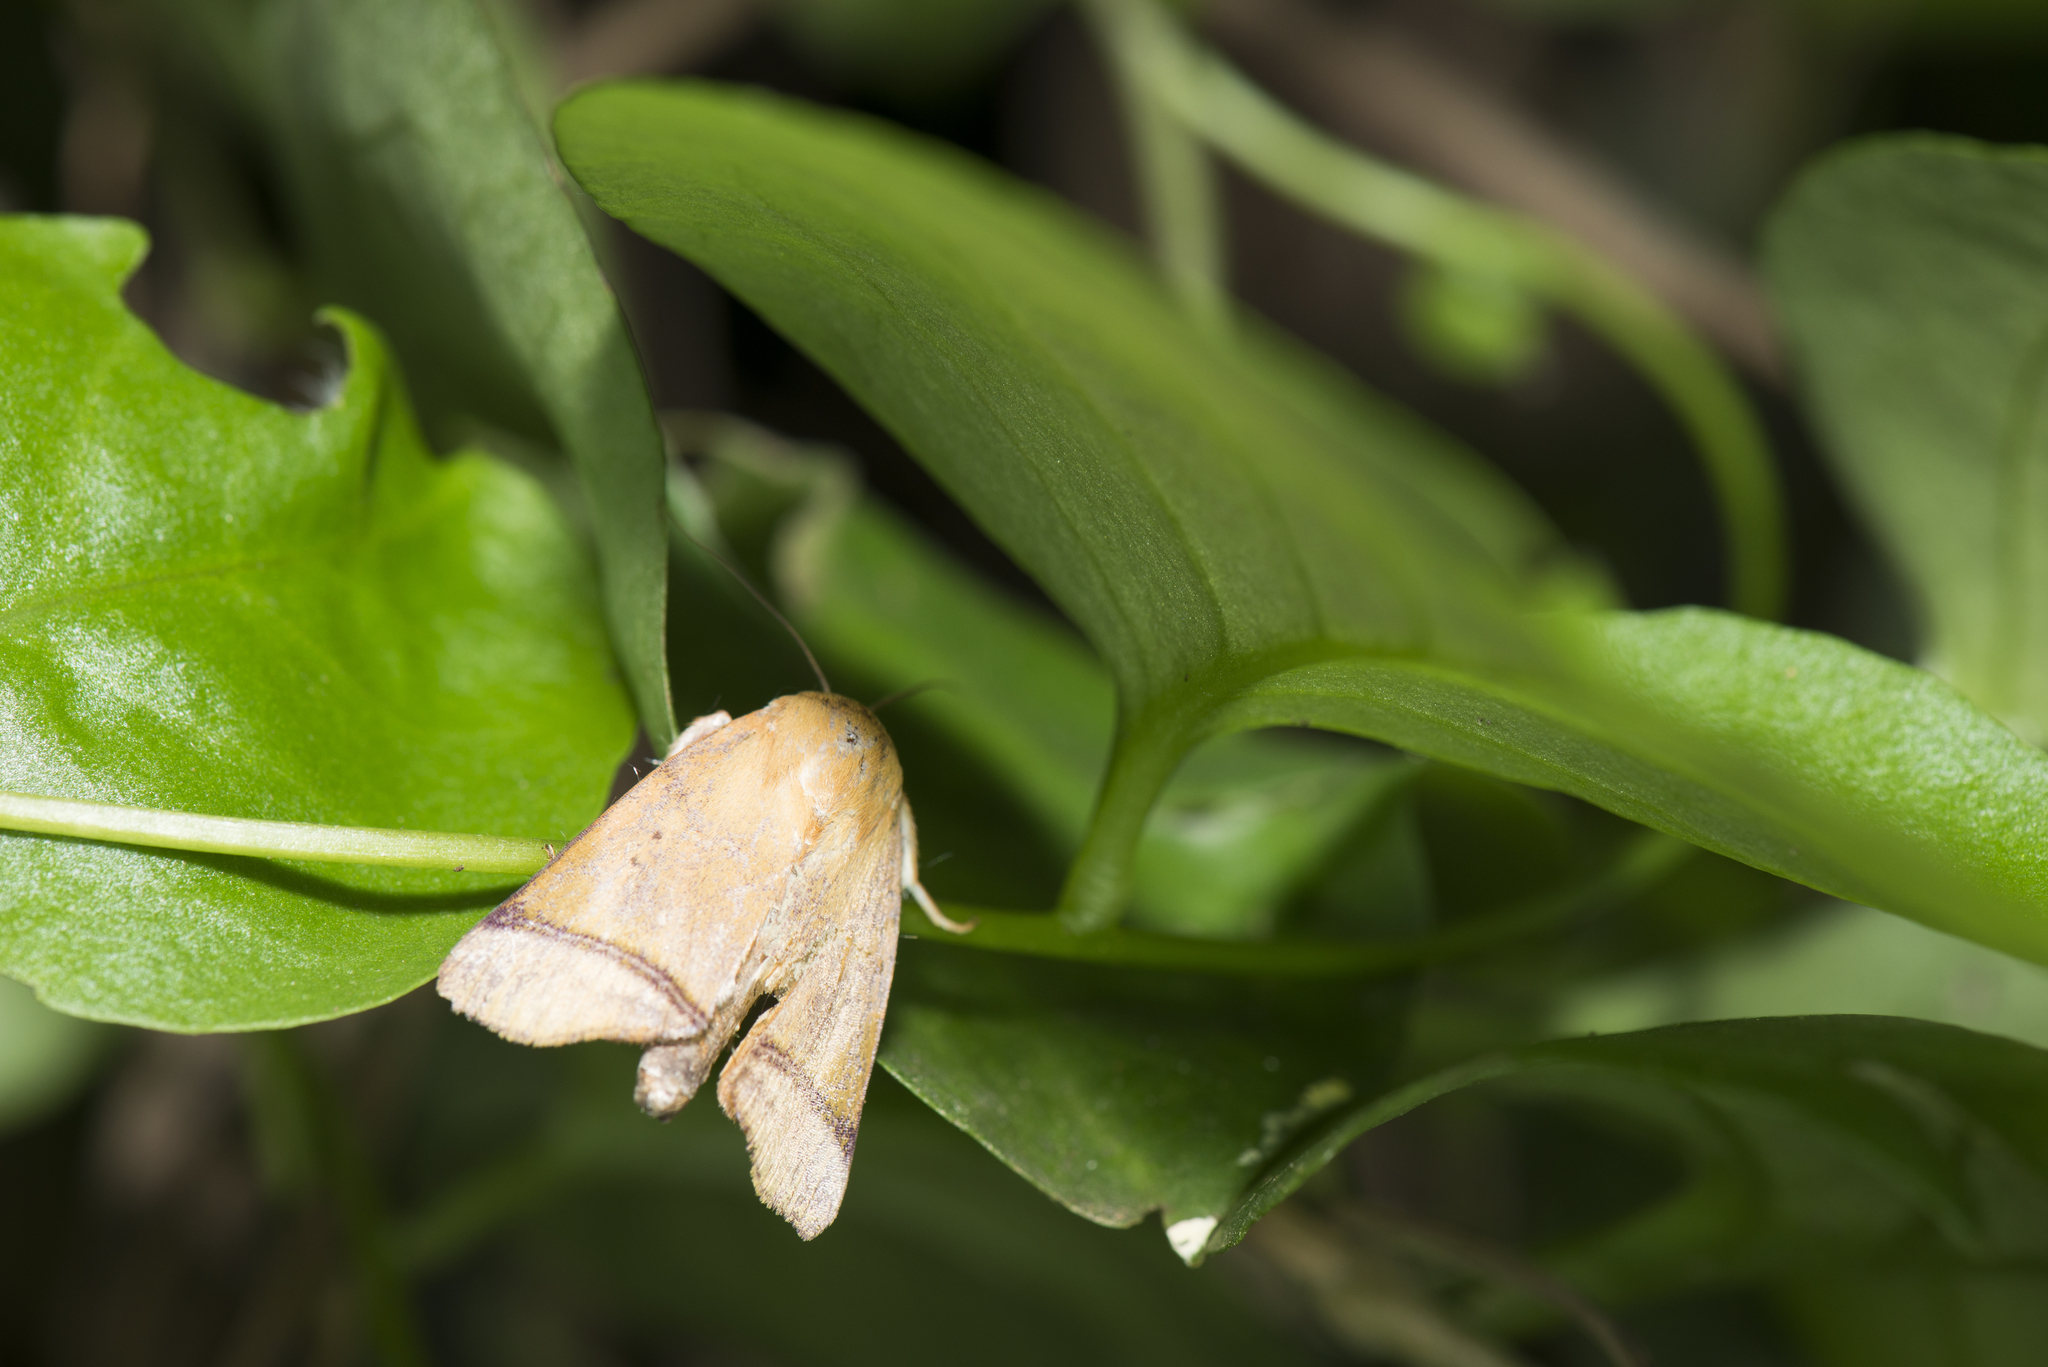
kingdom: Animalia
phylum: Arthropoda
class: Insecta
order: Lepidoptera
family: Nolidae
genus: Carea
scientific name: Carea varipes
